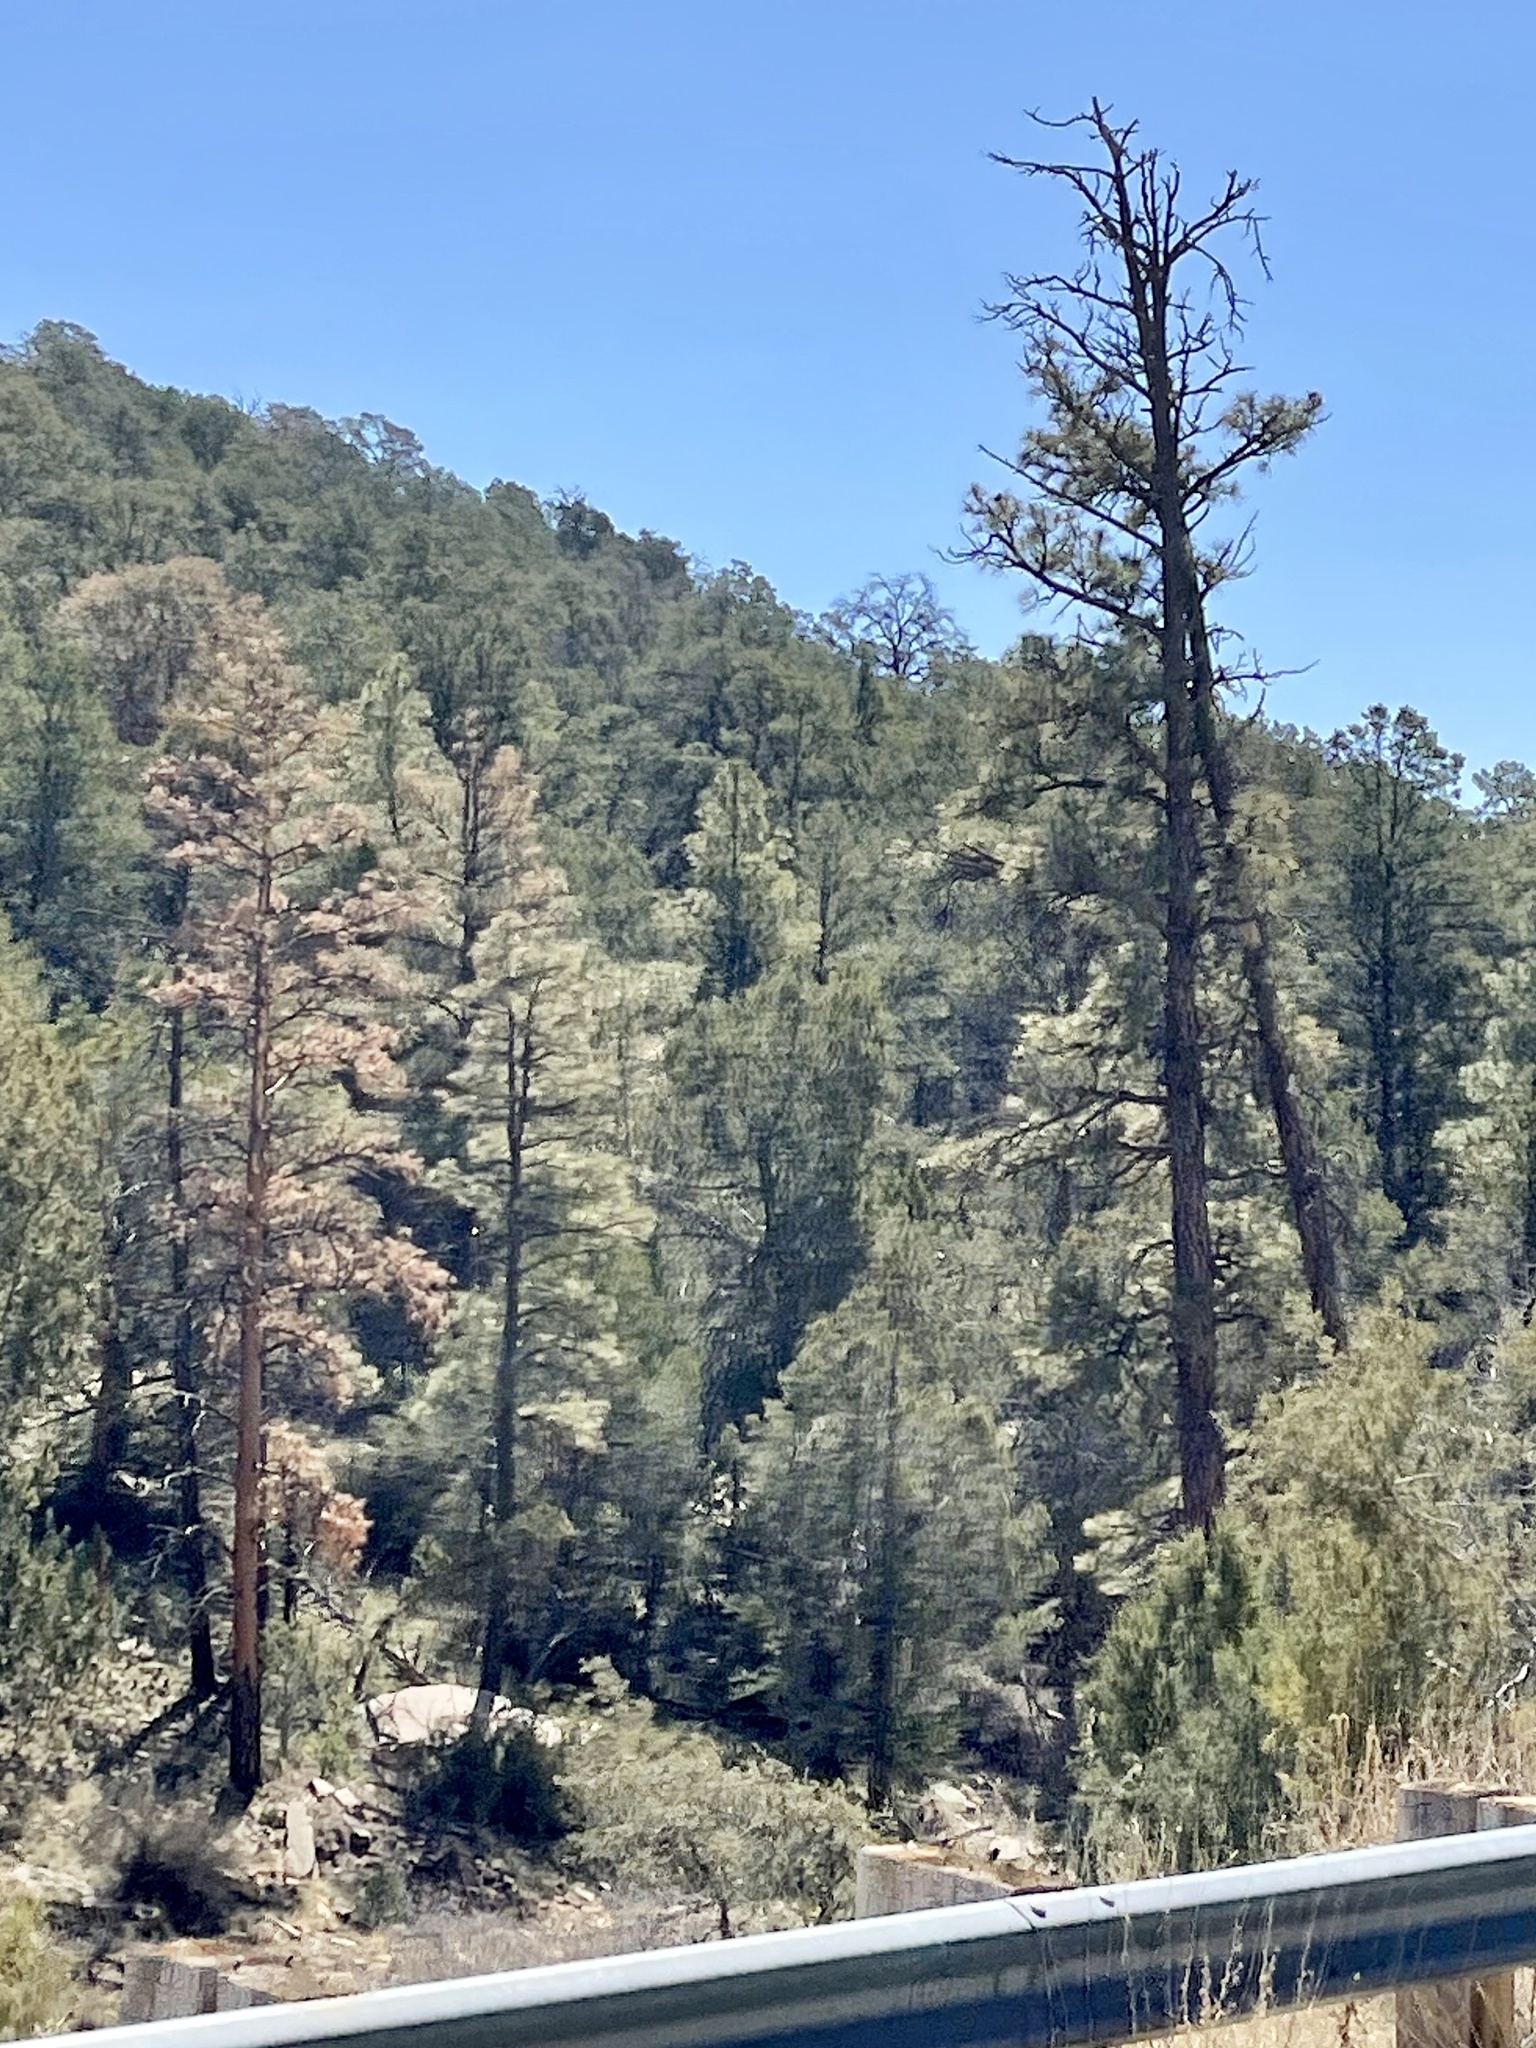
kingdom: Plantae
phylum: Tracheophyta
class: Pinopsida
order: Pinales
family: Pinaceae
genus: Pinus
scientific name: Pinus ponderosa
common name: Western yellow-pine
